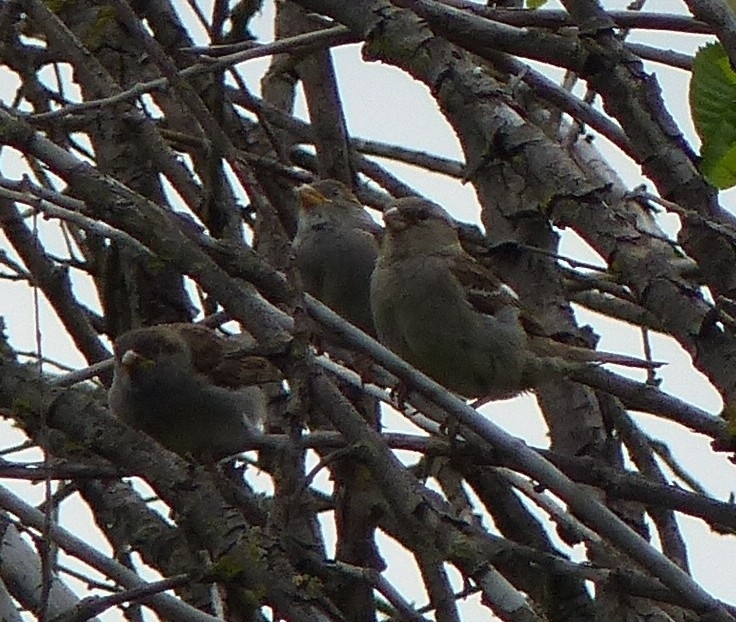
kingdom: Animalia
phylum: Chordata
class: Aves
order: Passeriformes
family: Passeridae
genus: Passer
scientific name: Passer domesticus
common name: House sparrow
